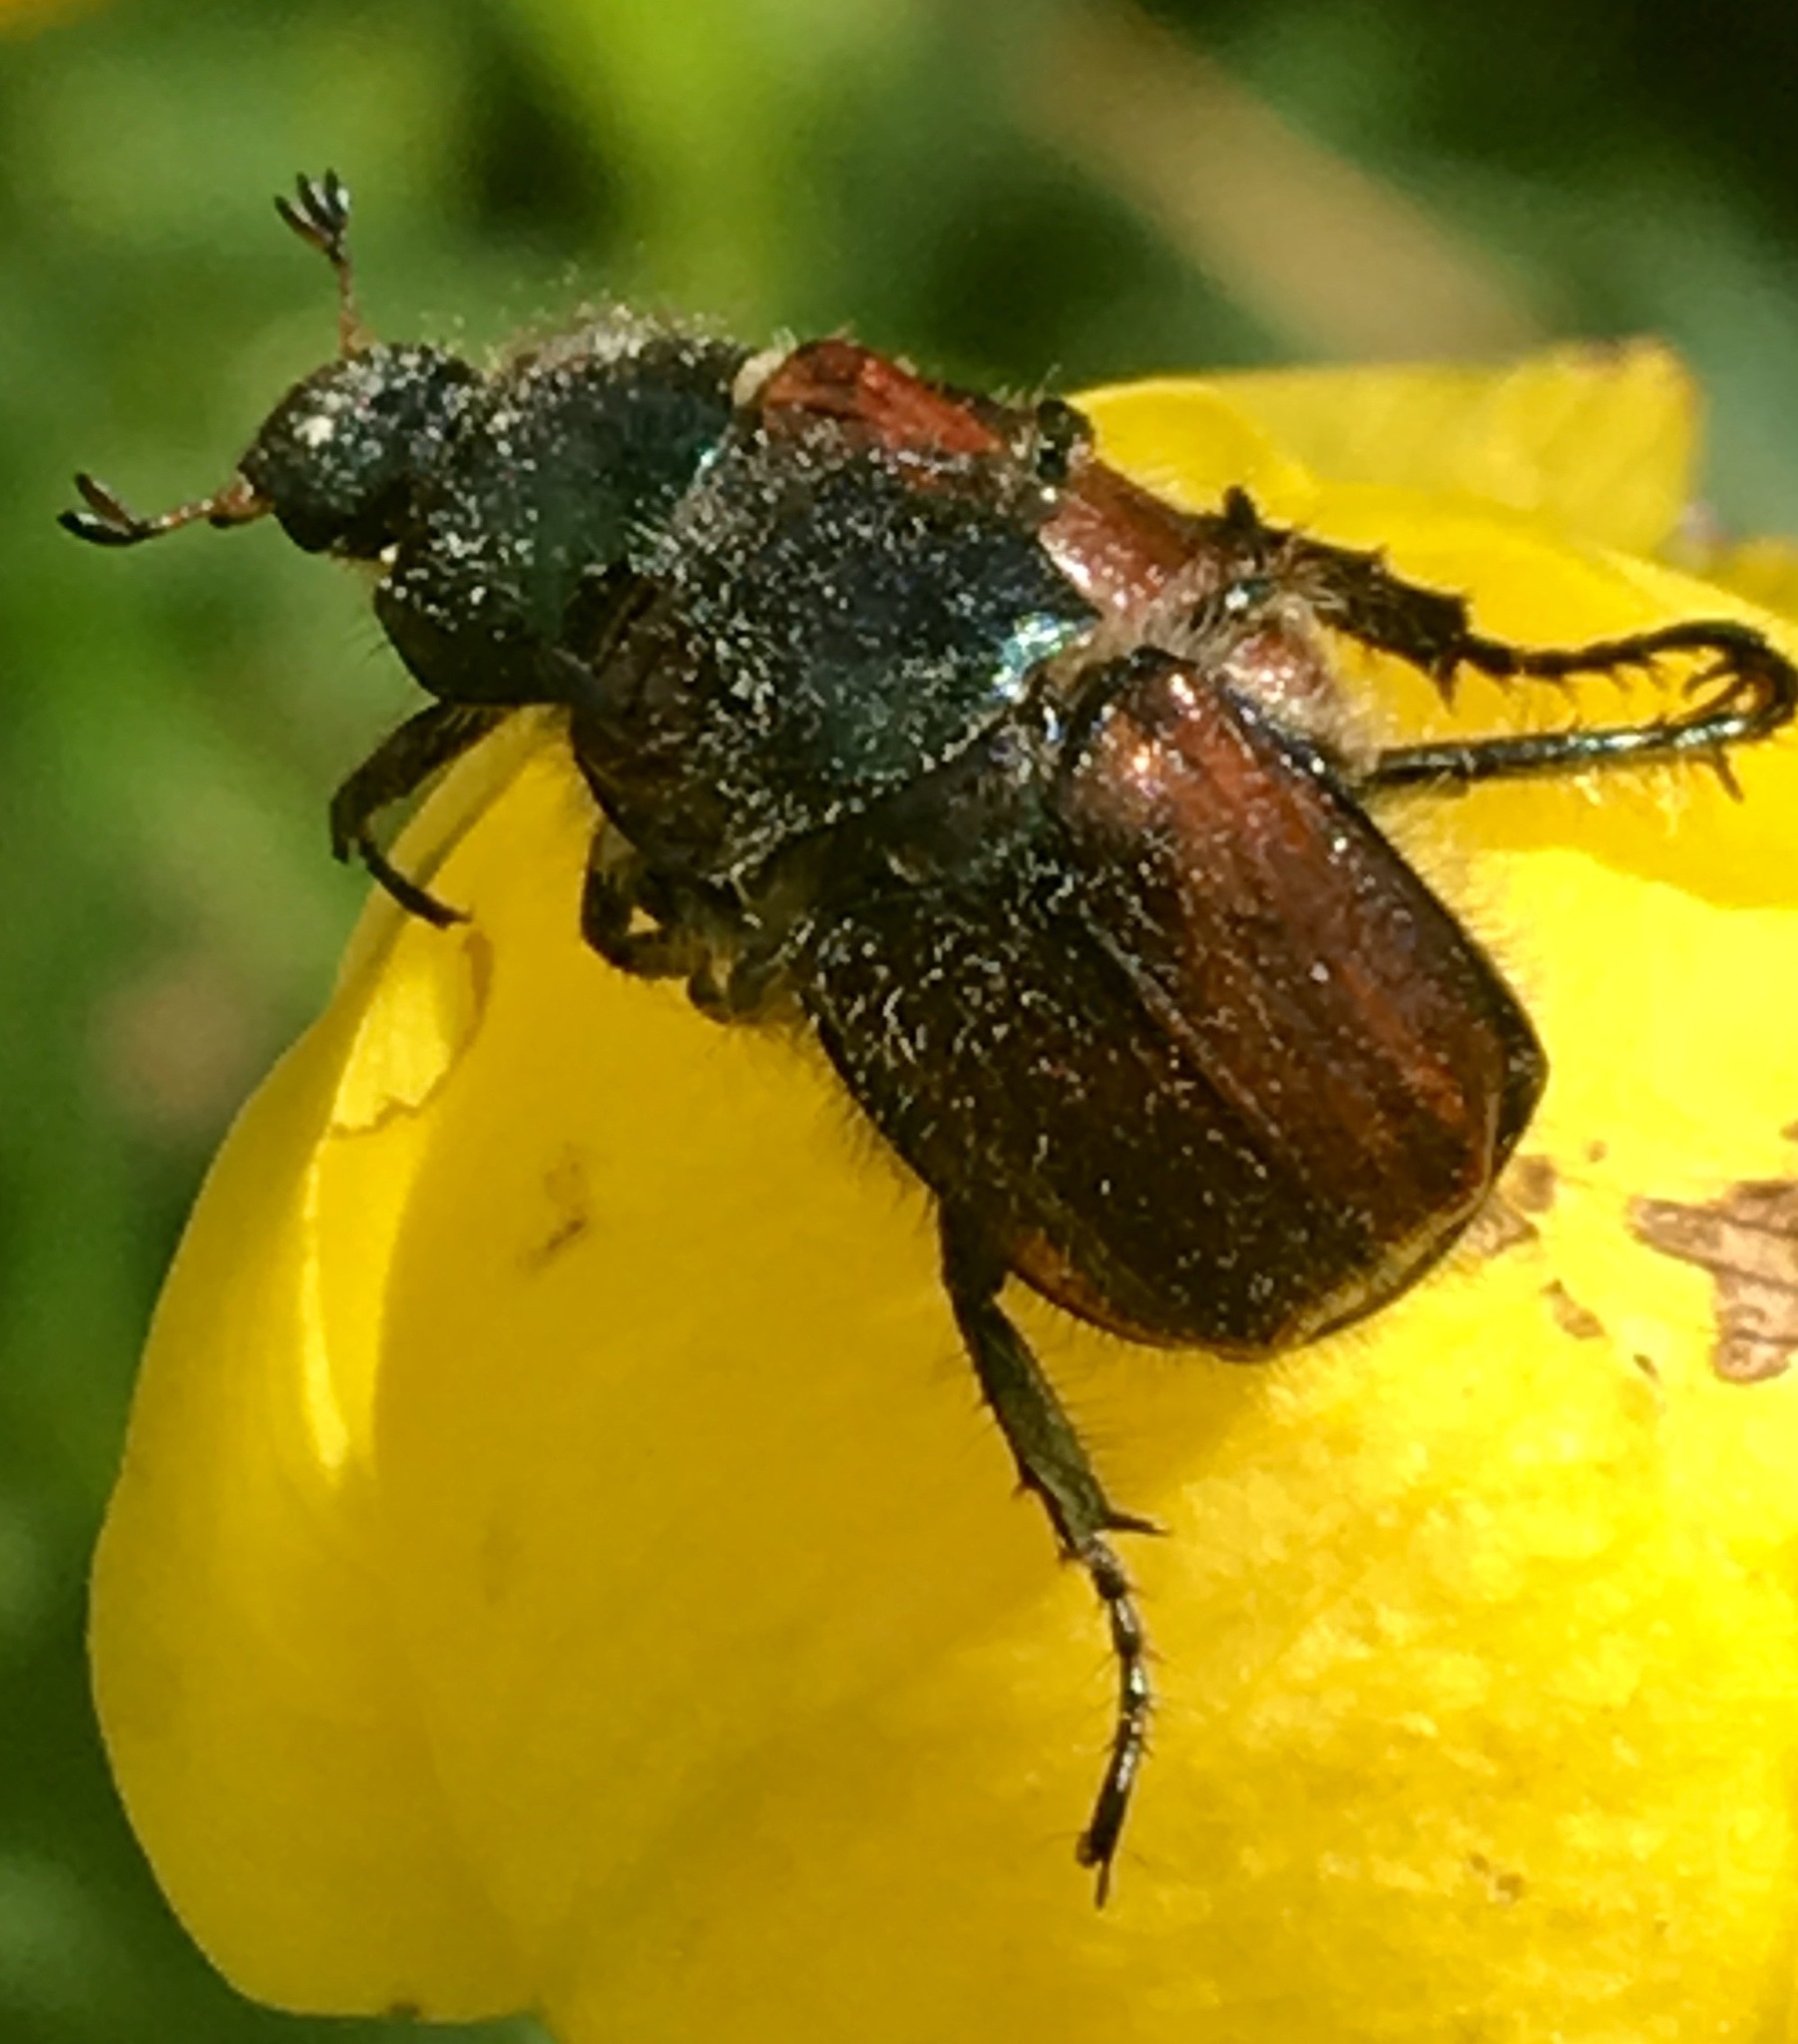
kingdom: Animalia
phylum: Arthropoda
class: Insecta
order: Coleoptera
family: Scarabaeidae
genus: Phyllopertha
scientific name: Phyllopertha horticola
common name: Garden chafer
